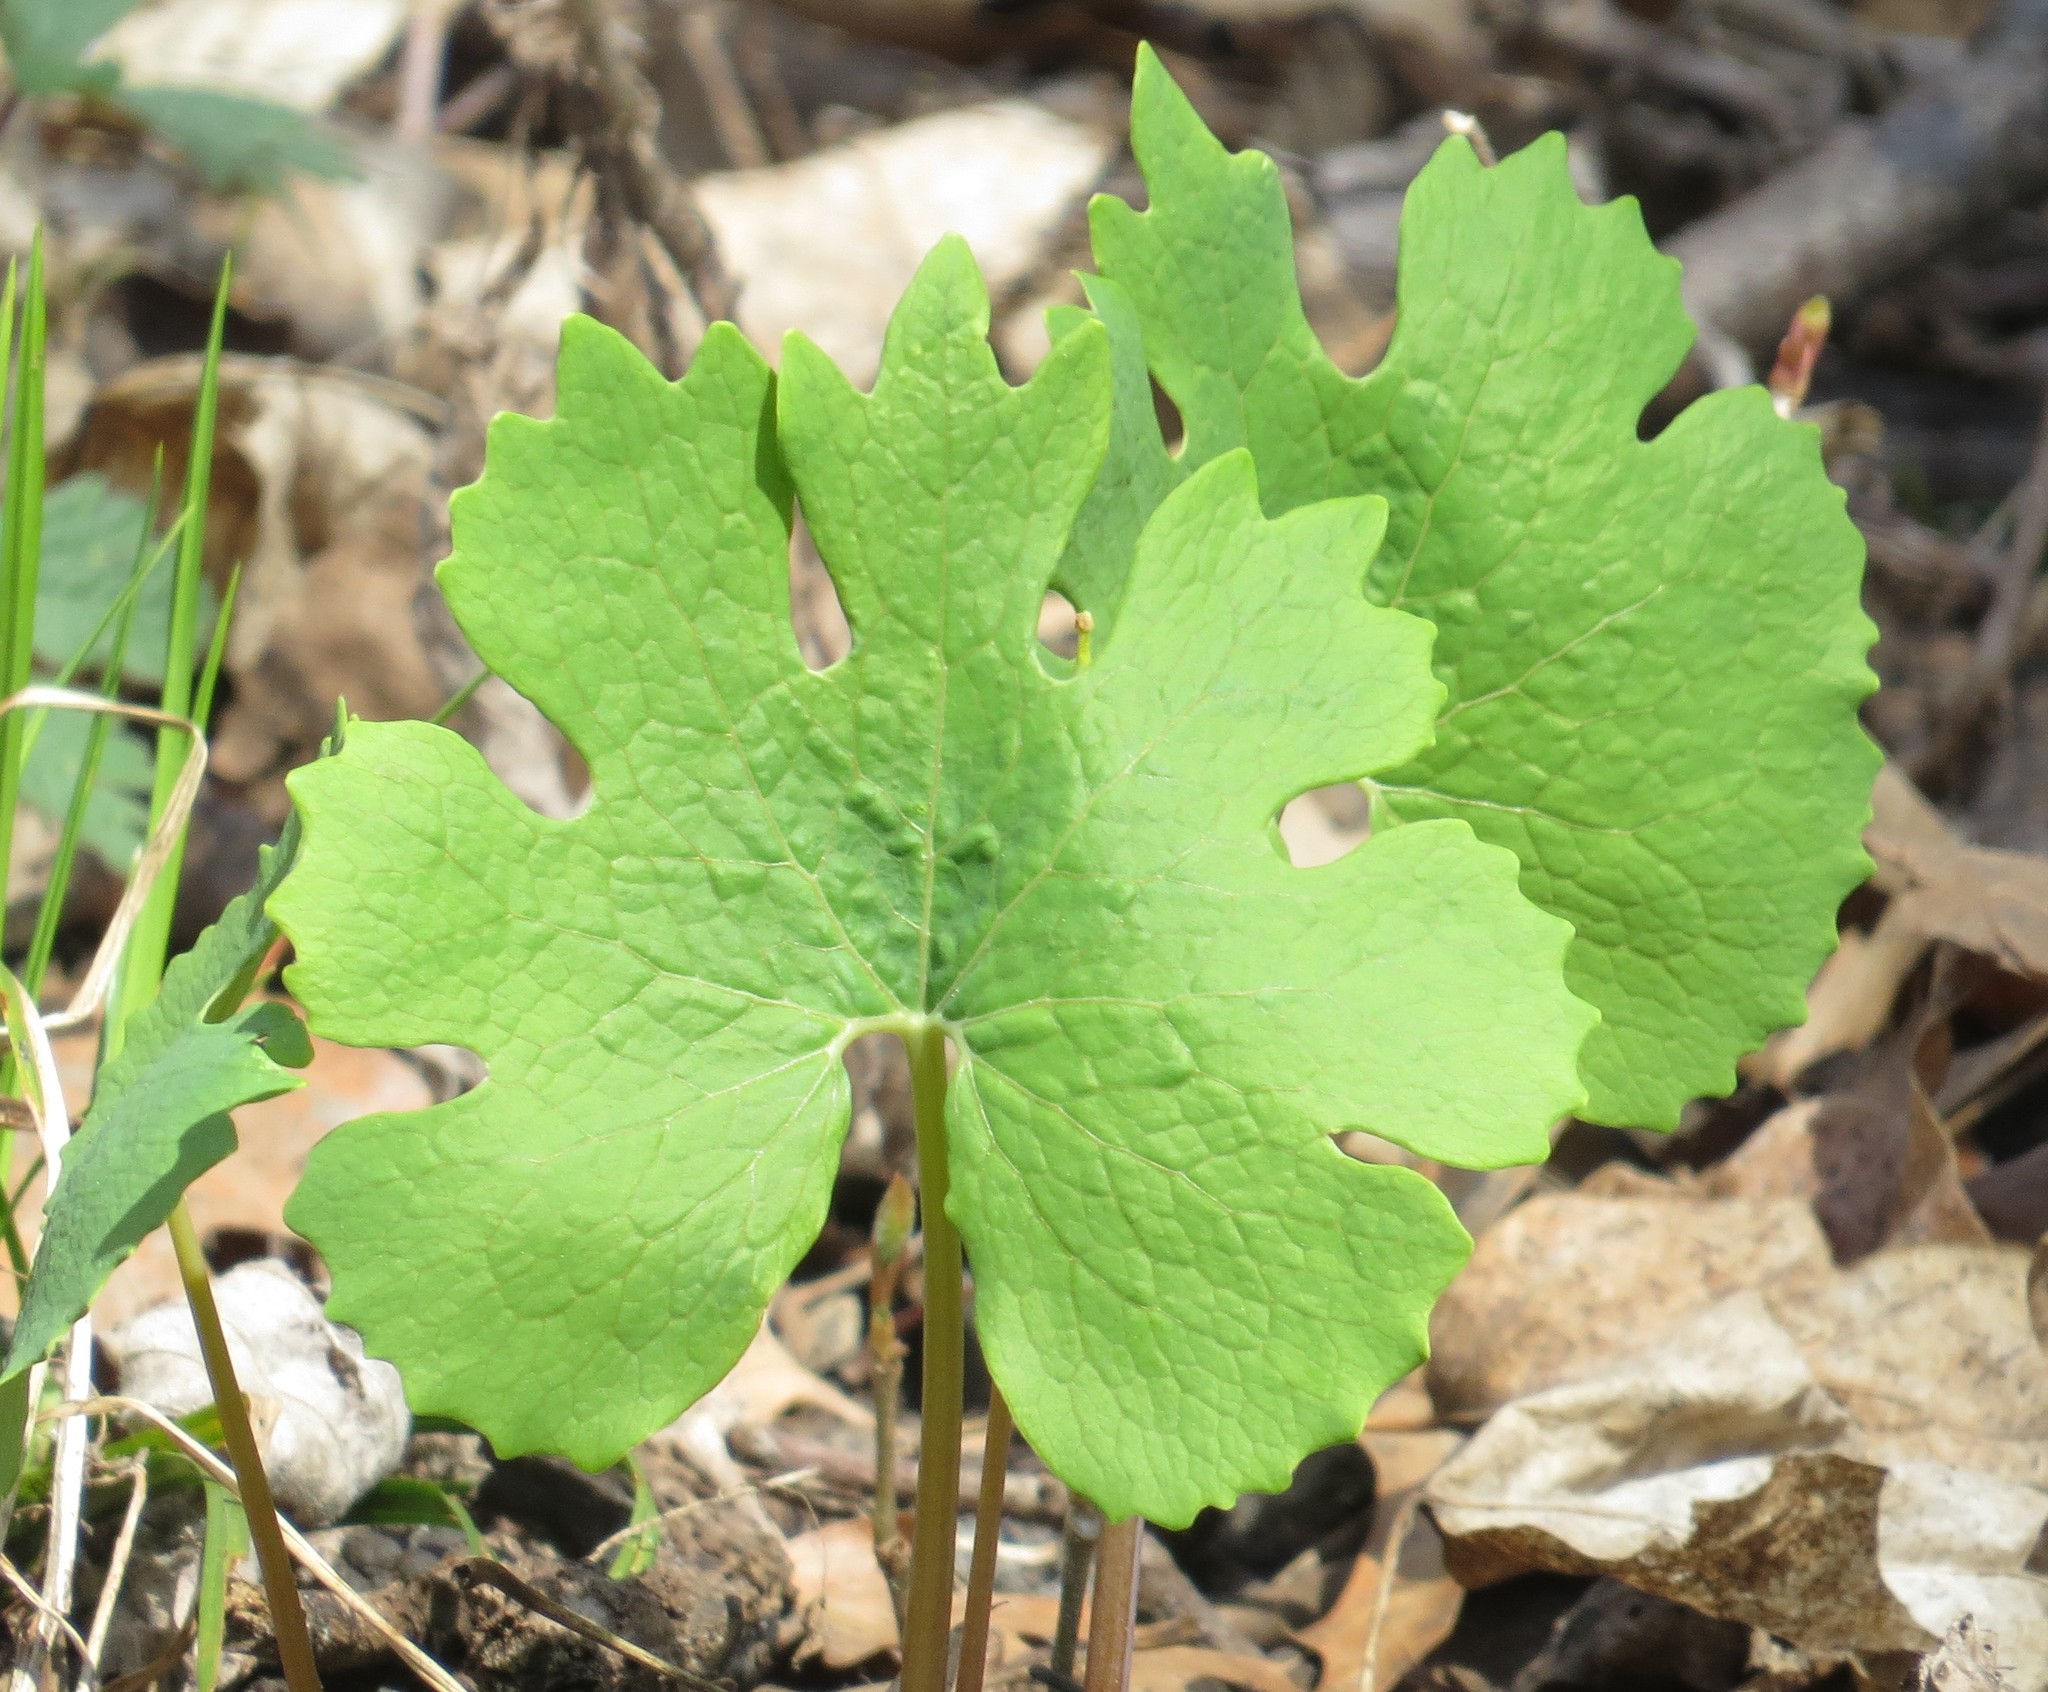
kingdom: Plantae
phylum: Tracheophyta
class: Magnoliopsida
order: Ranunculales
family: Papaveraceae
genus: Sanguinaria
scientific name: Sanguinaria canadensis
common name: Bloodroot
